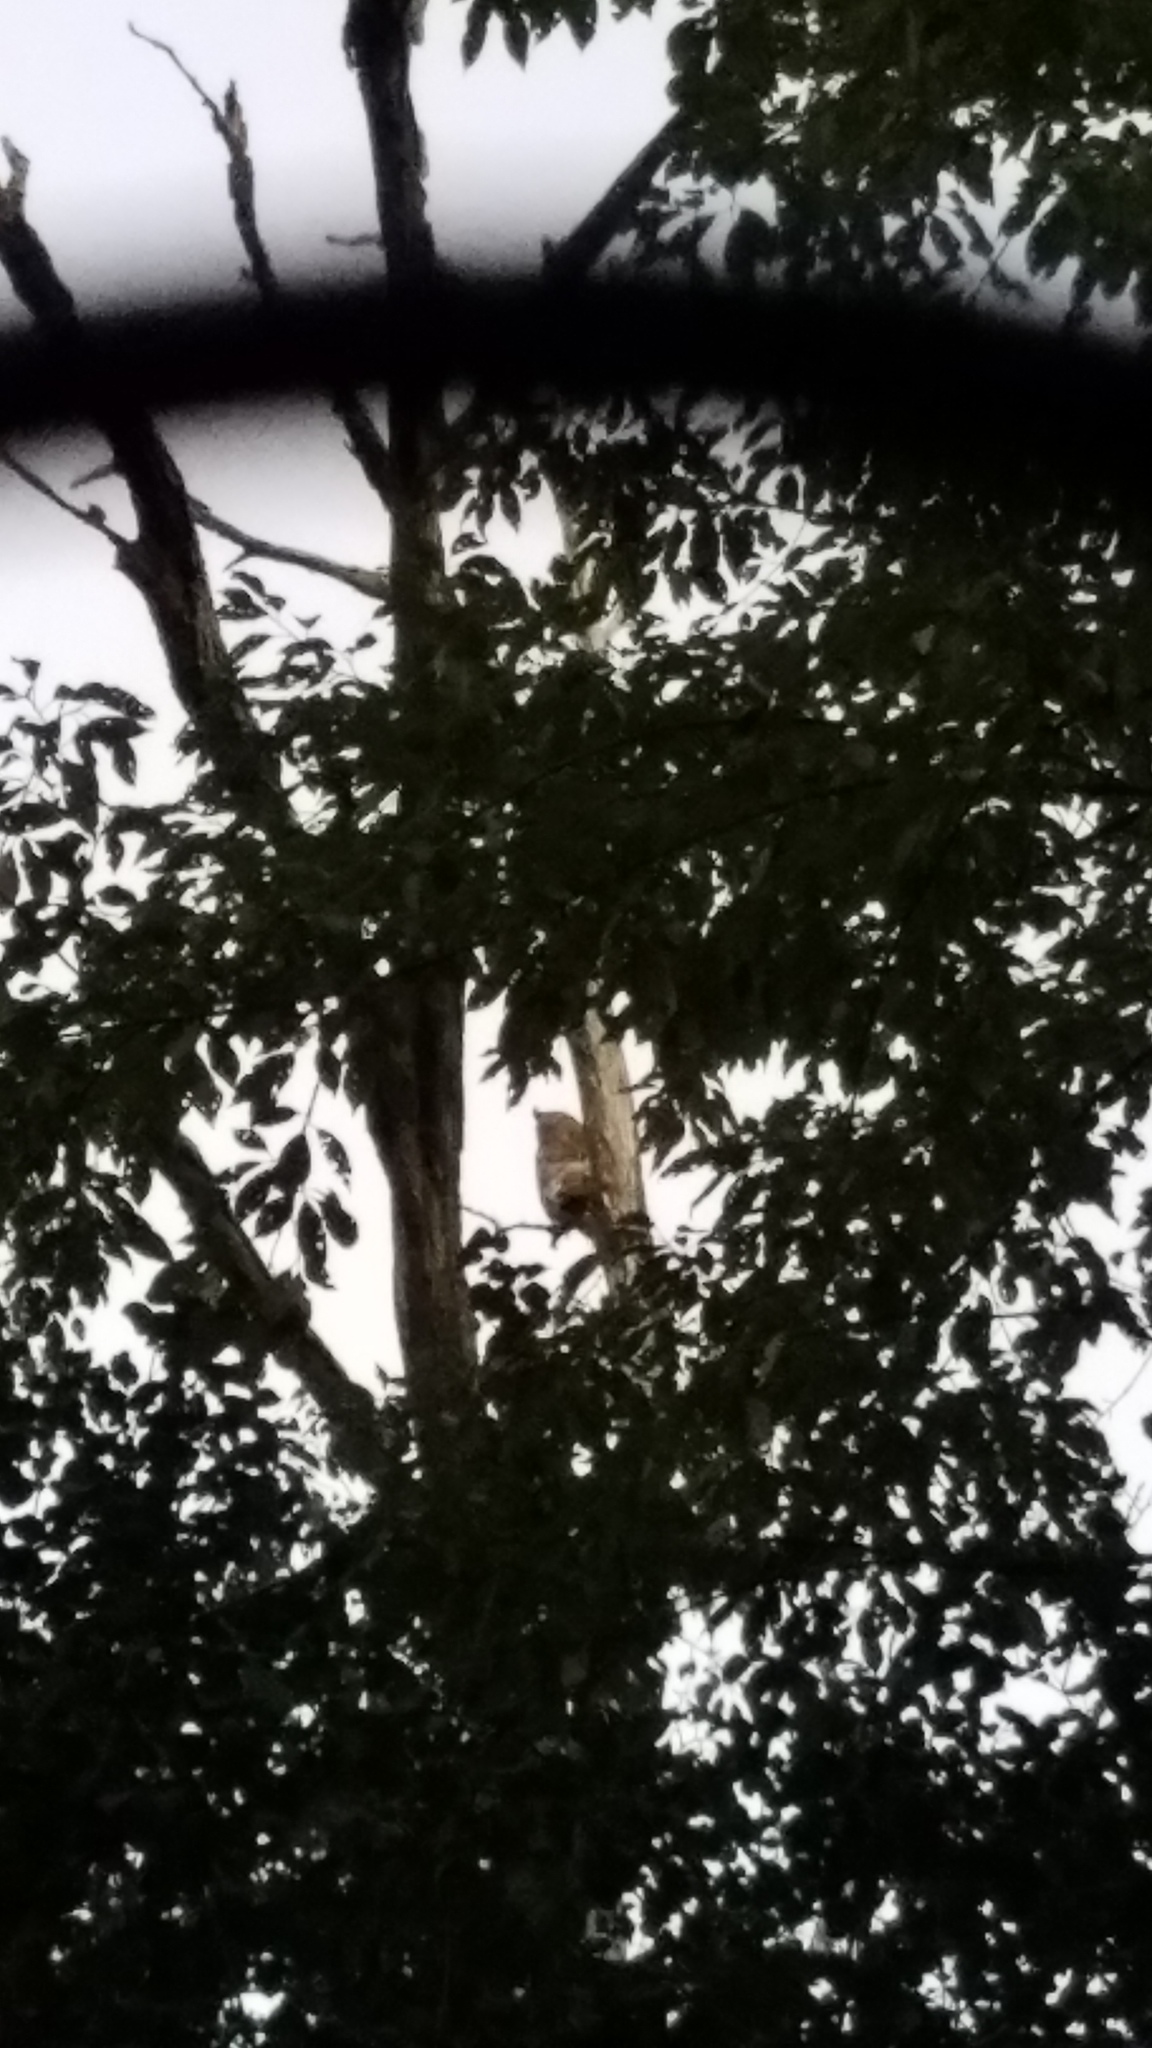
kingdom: Animalia
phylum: Chordata
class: Aves
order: Strigiformes
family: Strigidae
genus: Bubo
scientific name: Bubo virginianus
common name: Great horned owl
